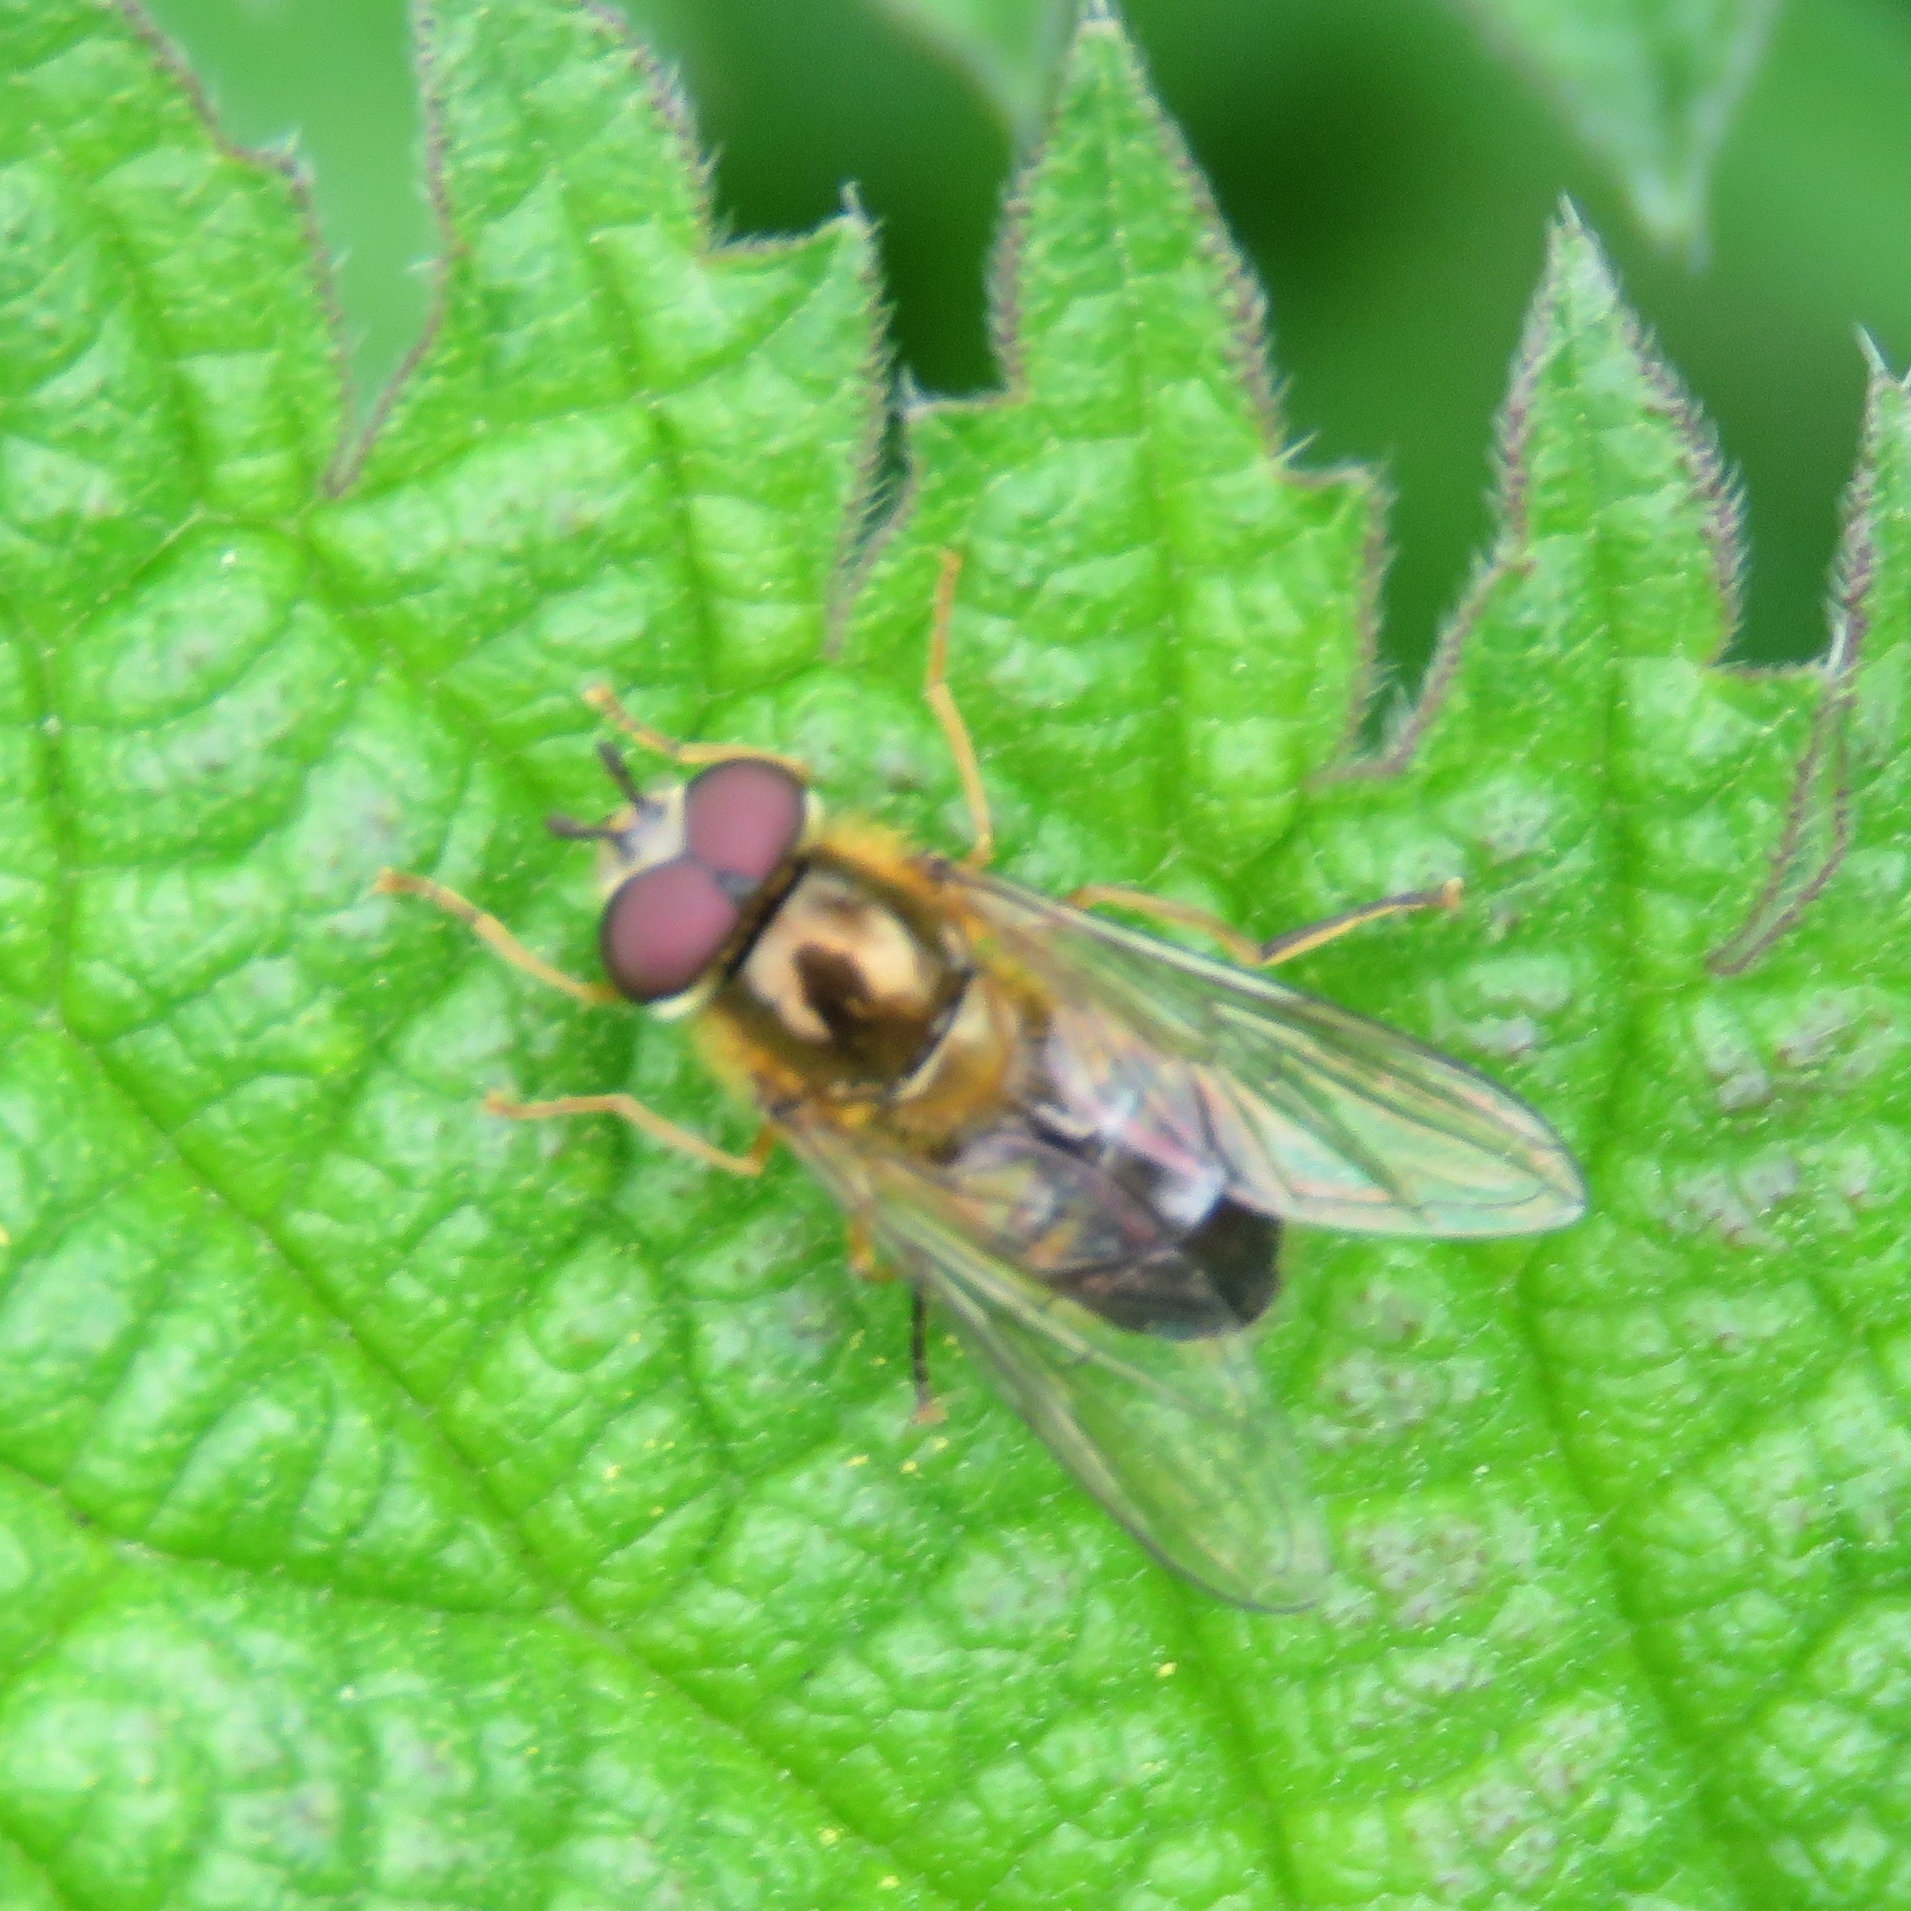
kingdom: Animalia
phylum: Arthropoda
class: Insecta
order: Diptera
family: Syrphidae
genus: Epistrophe
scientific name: Epistrophe eligans
